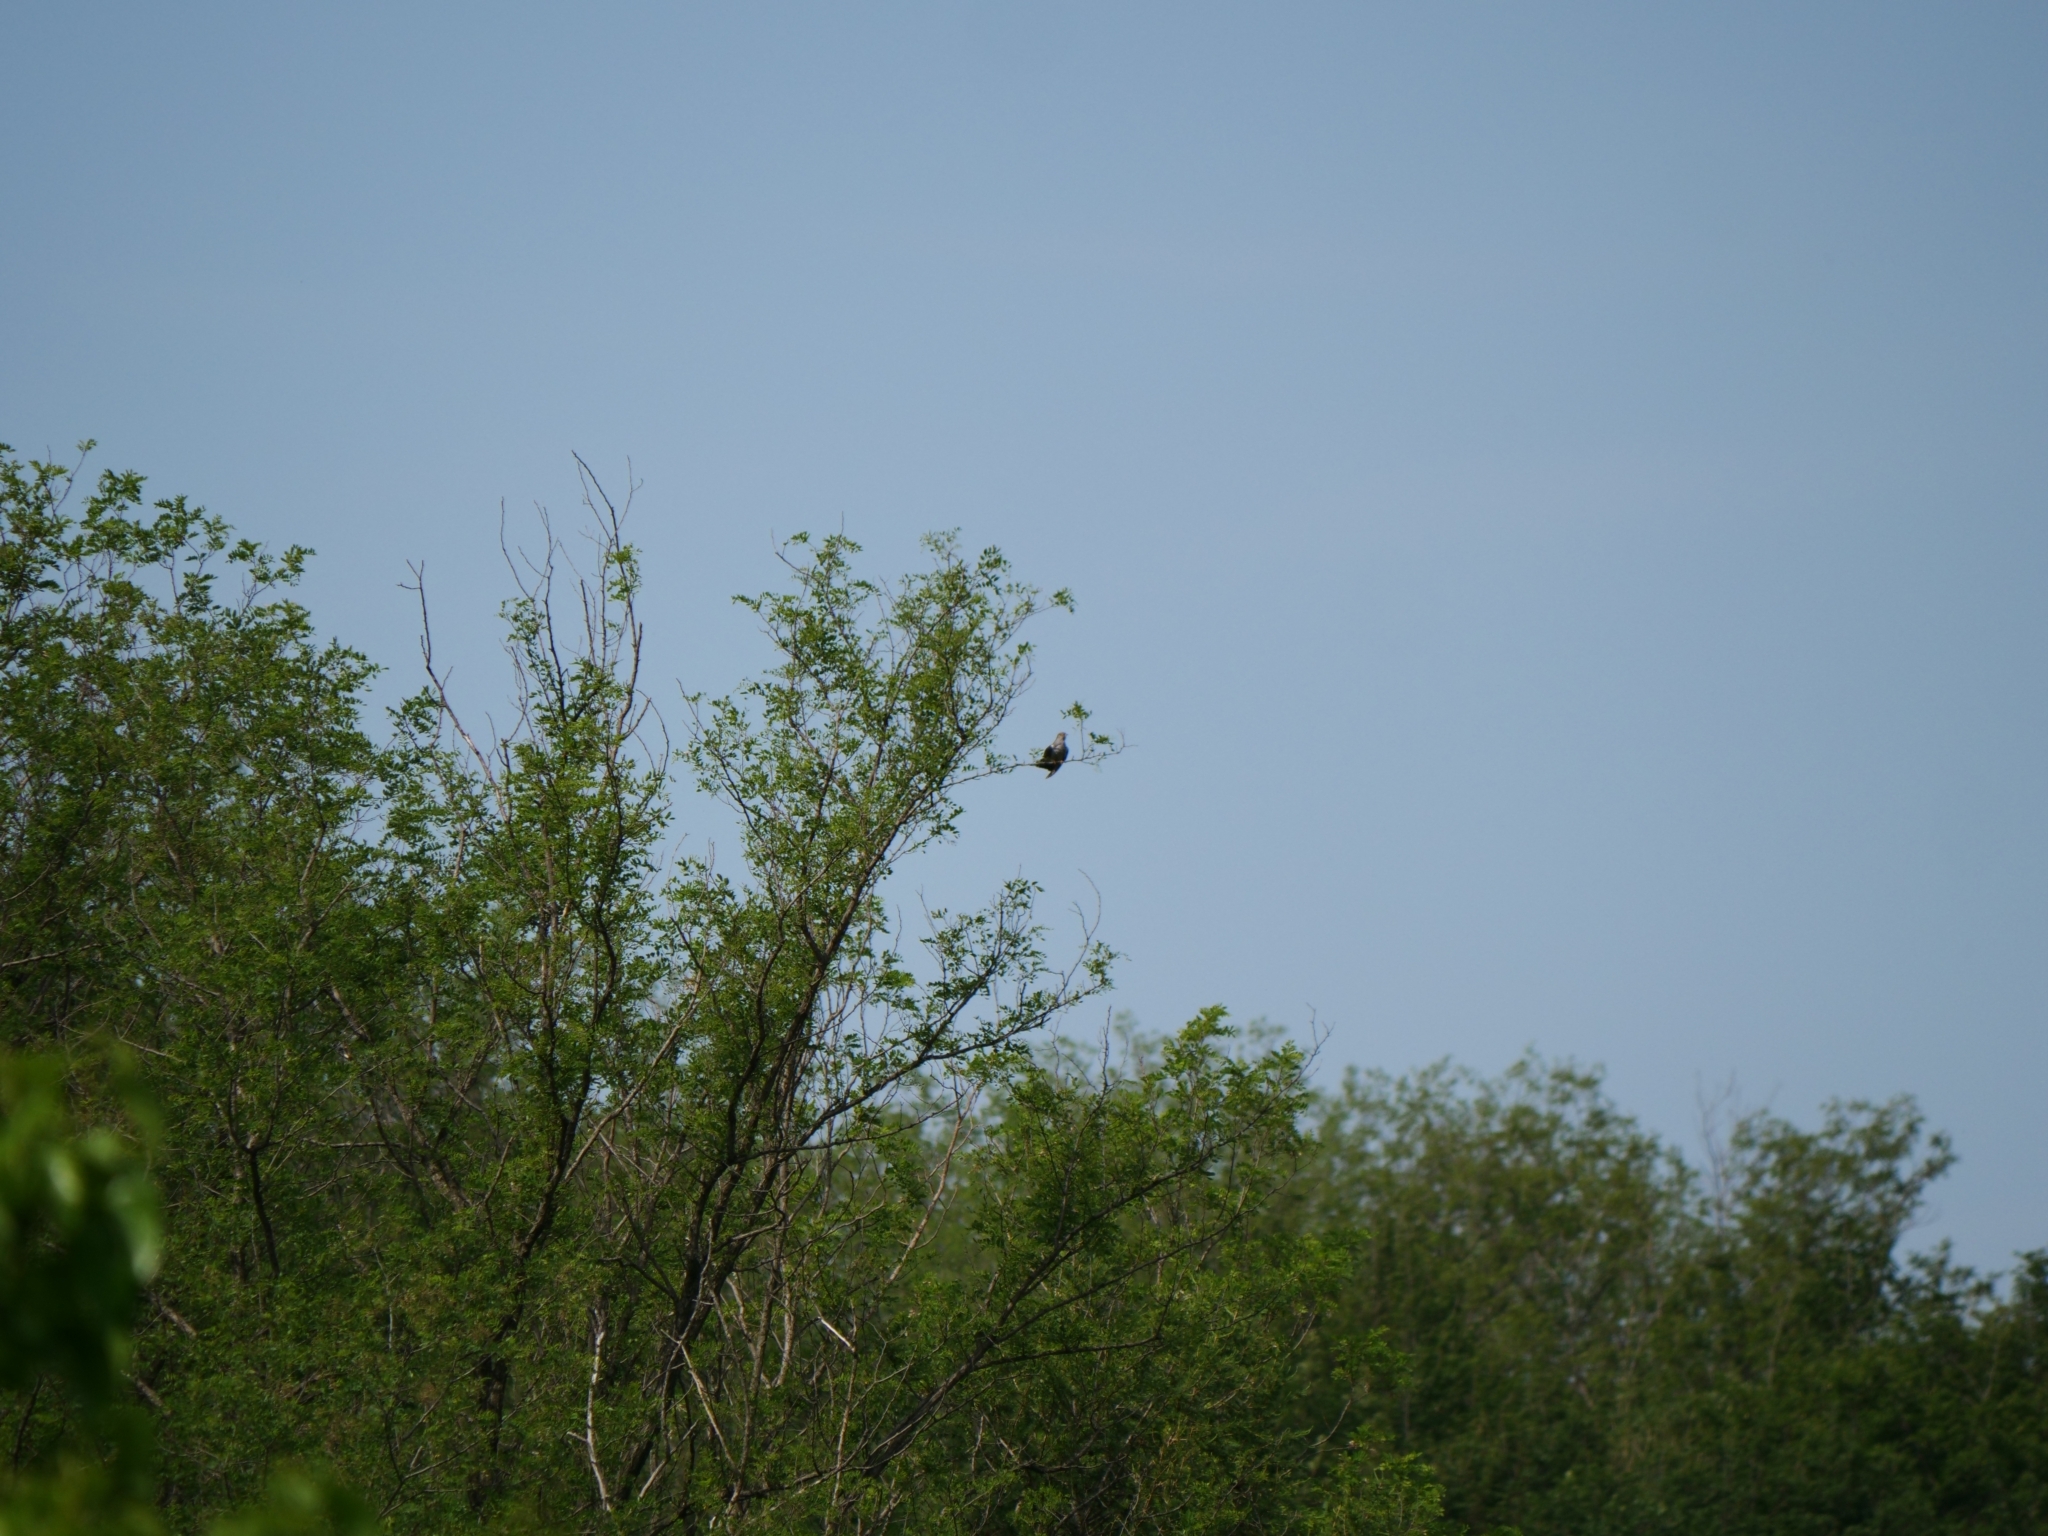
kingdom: Animalia
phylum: Chordata
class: Aves
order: Cuculiformes
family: Cuculidae
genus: Cuculus
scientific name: Cuculus canorus
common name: Common cuckoo
